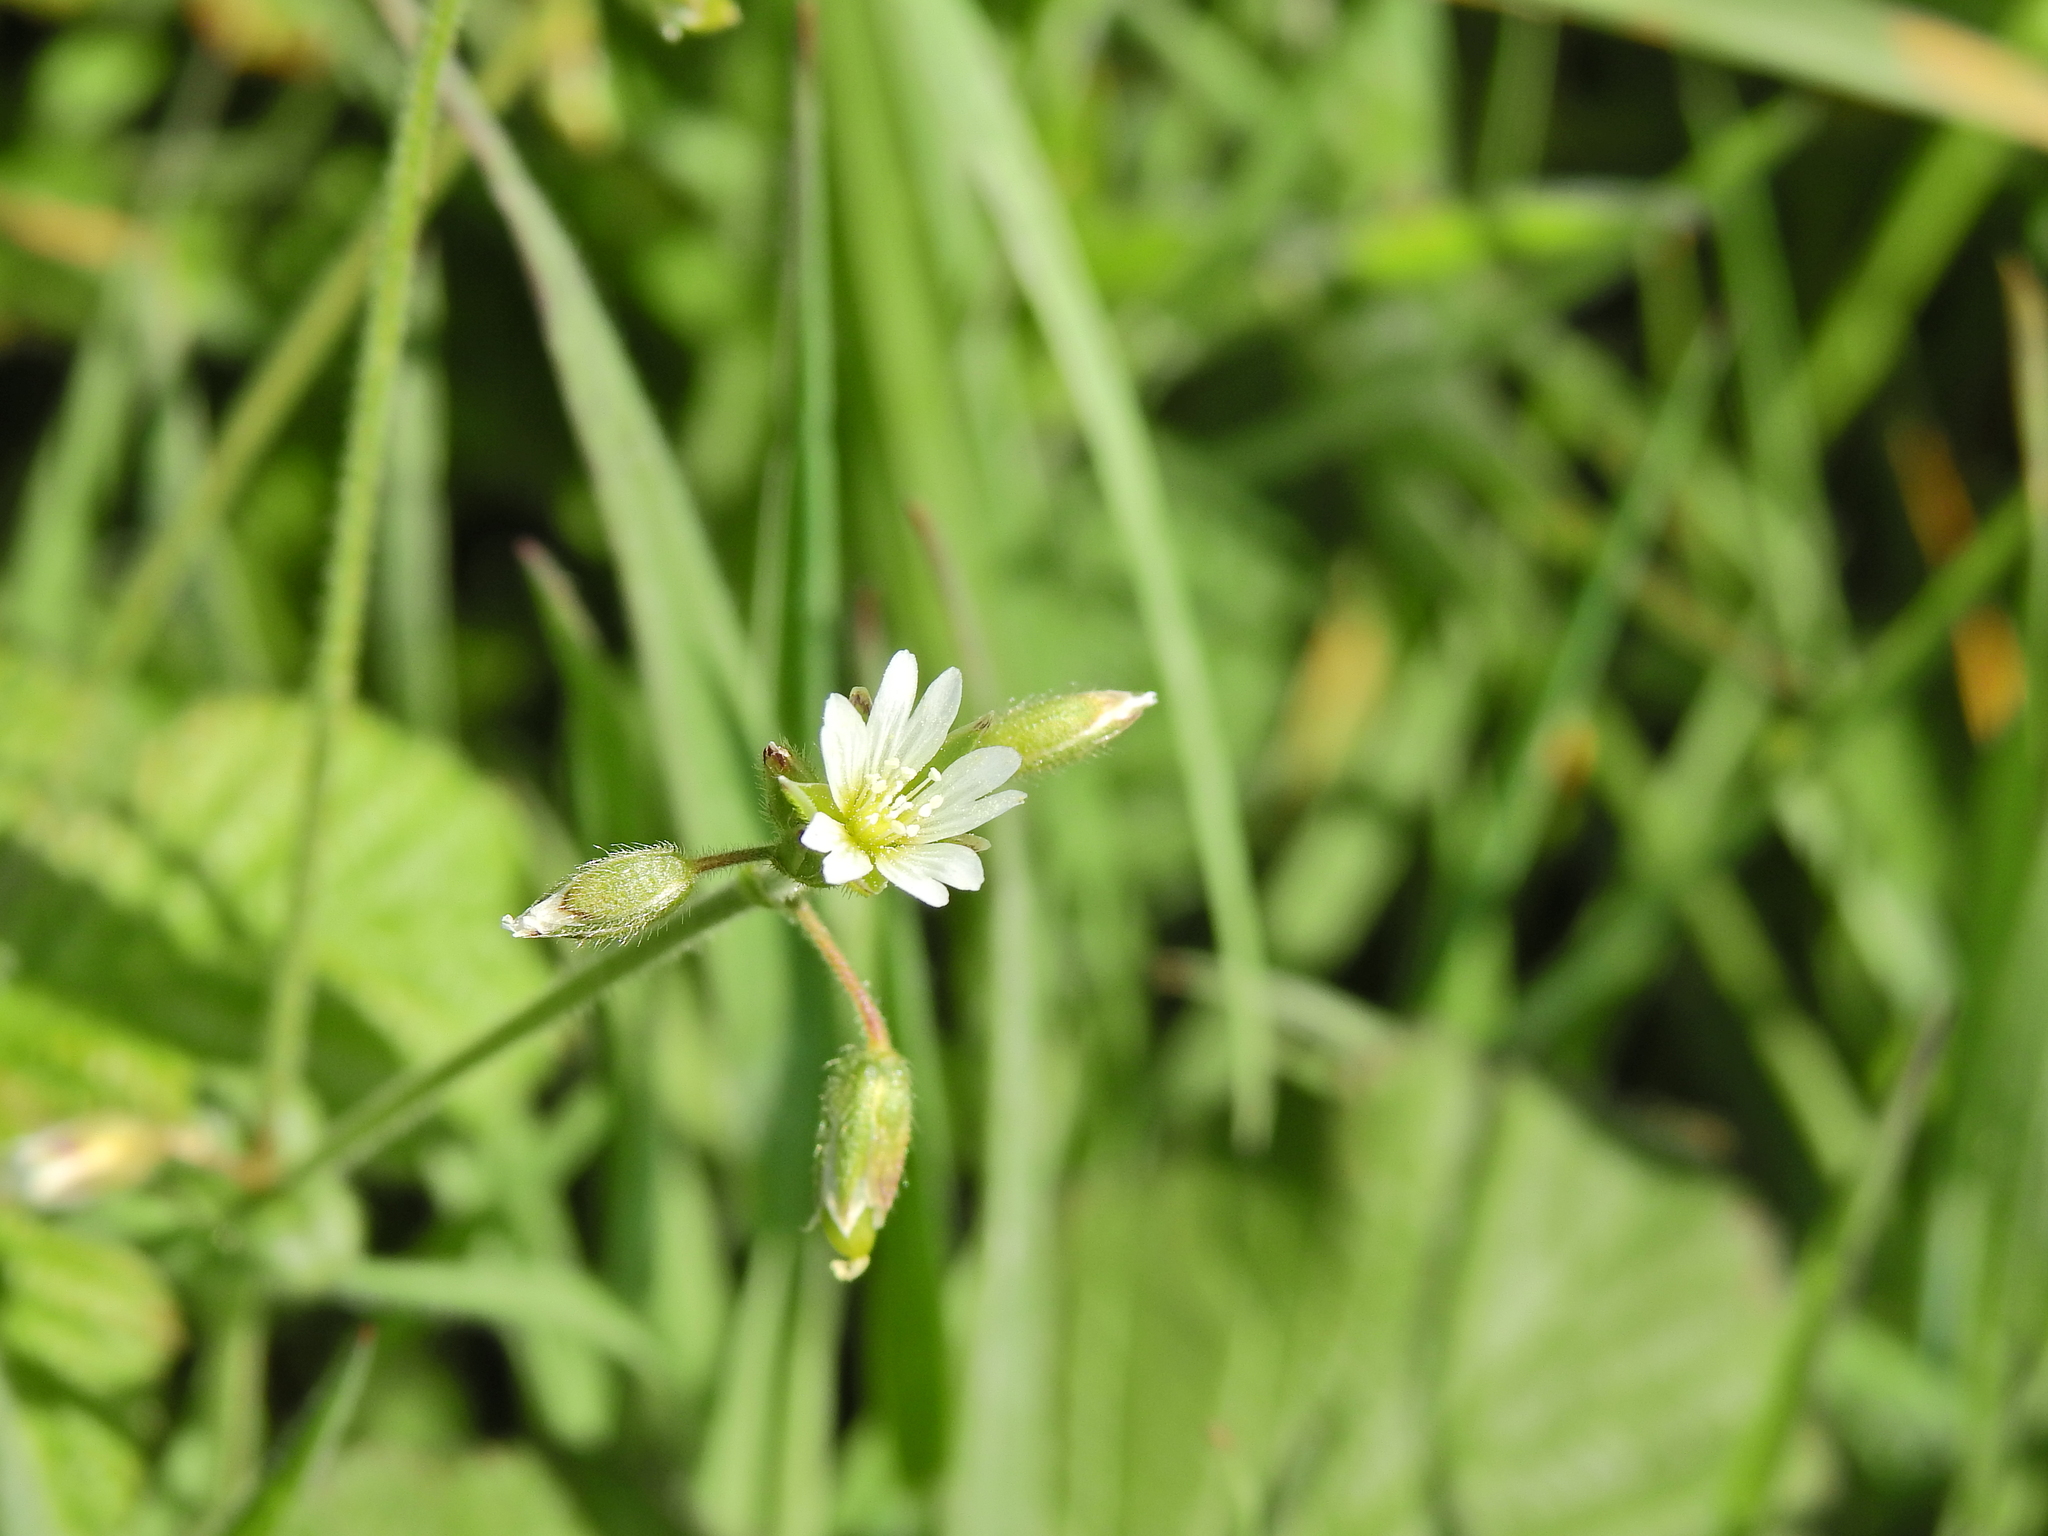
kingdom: Plantae
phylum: Tracheophyta
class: Magnoliopsida
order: Caryophyllales
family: Caryophyllaceae
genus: Cerastium
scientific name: Cerastium fontanum
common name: Common mouse-ear
